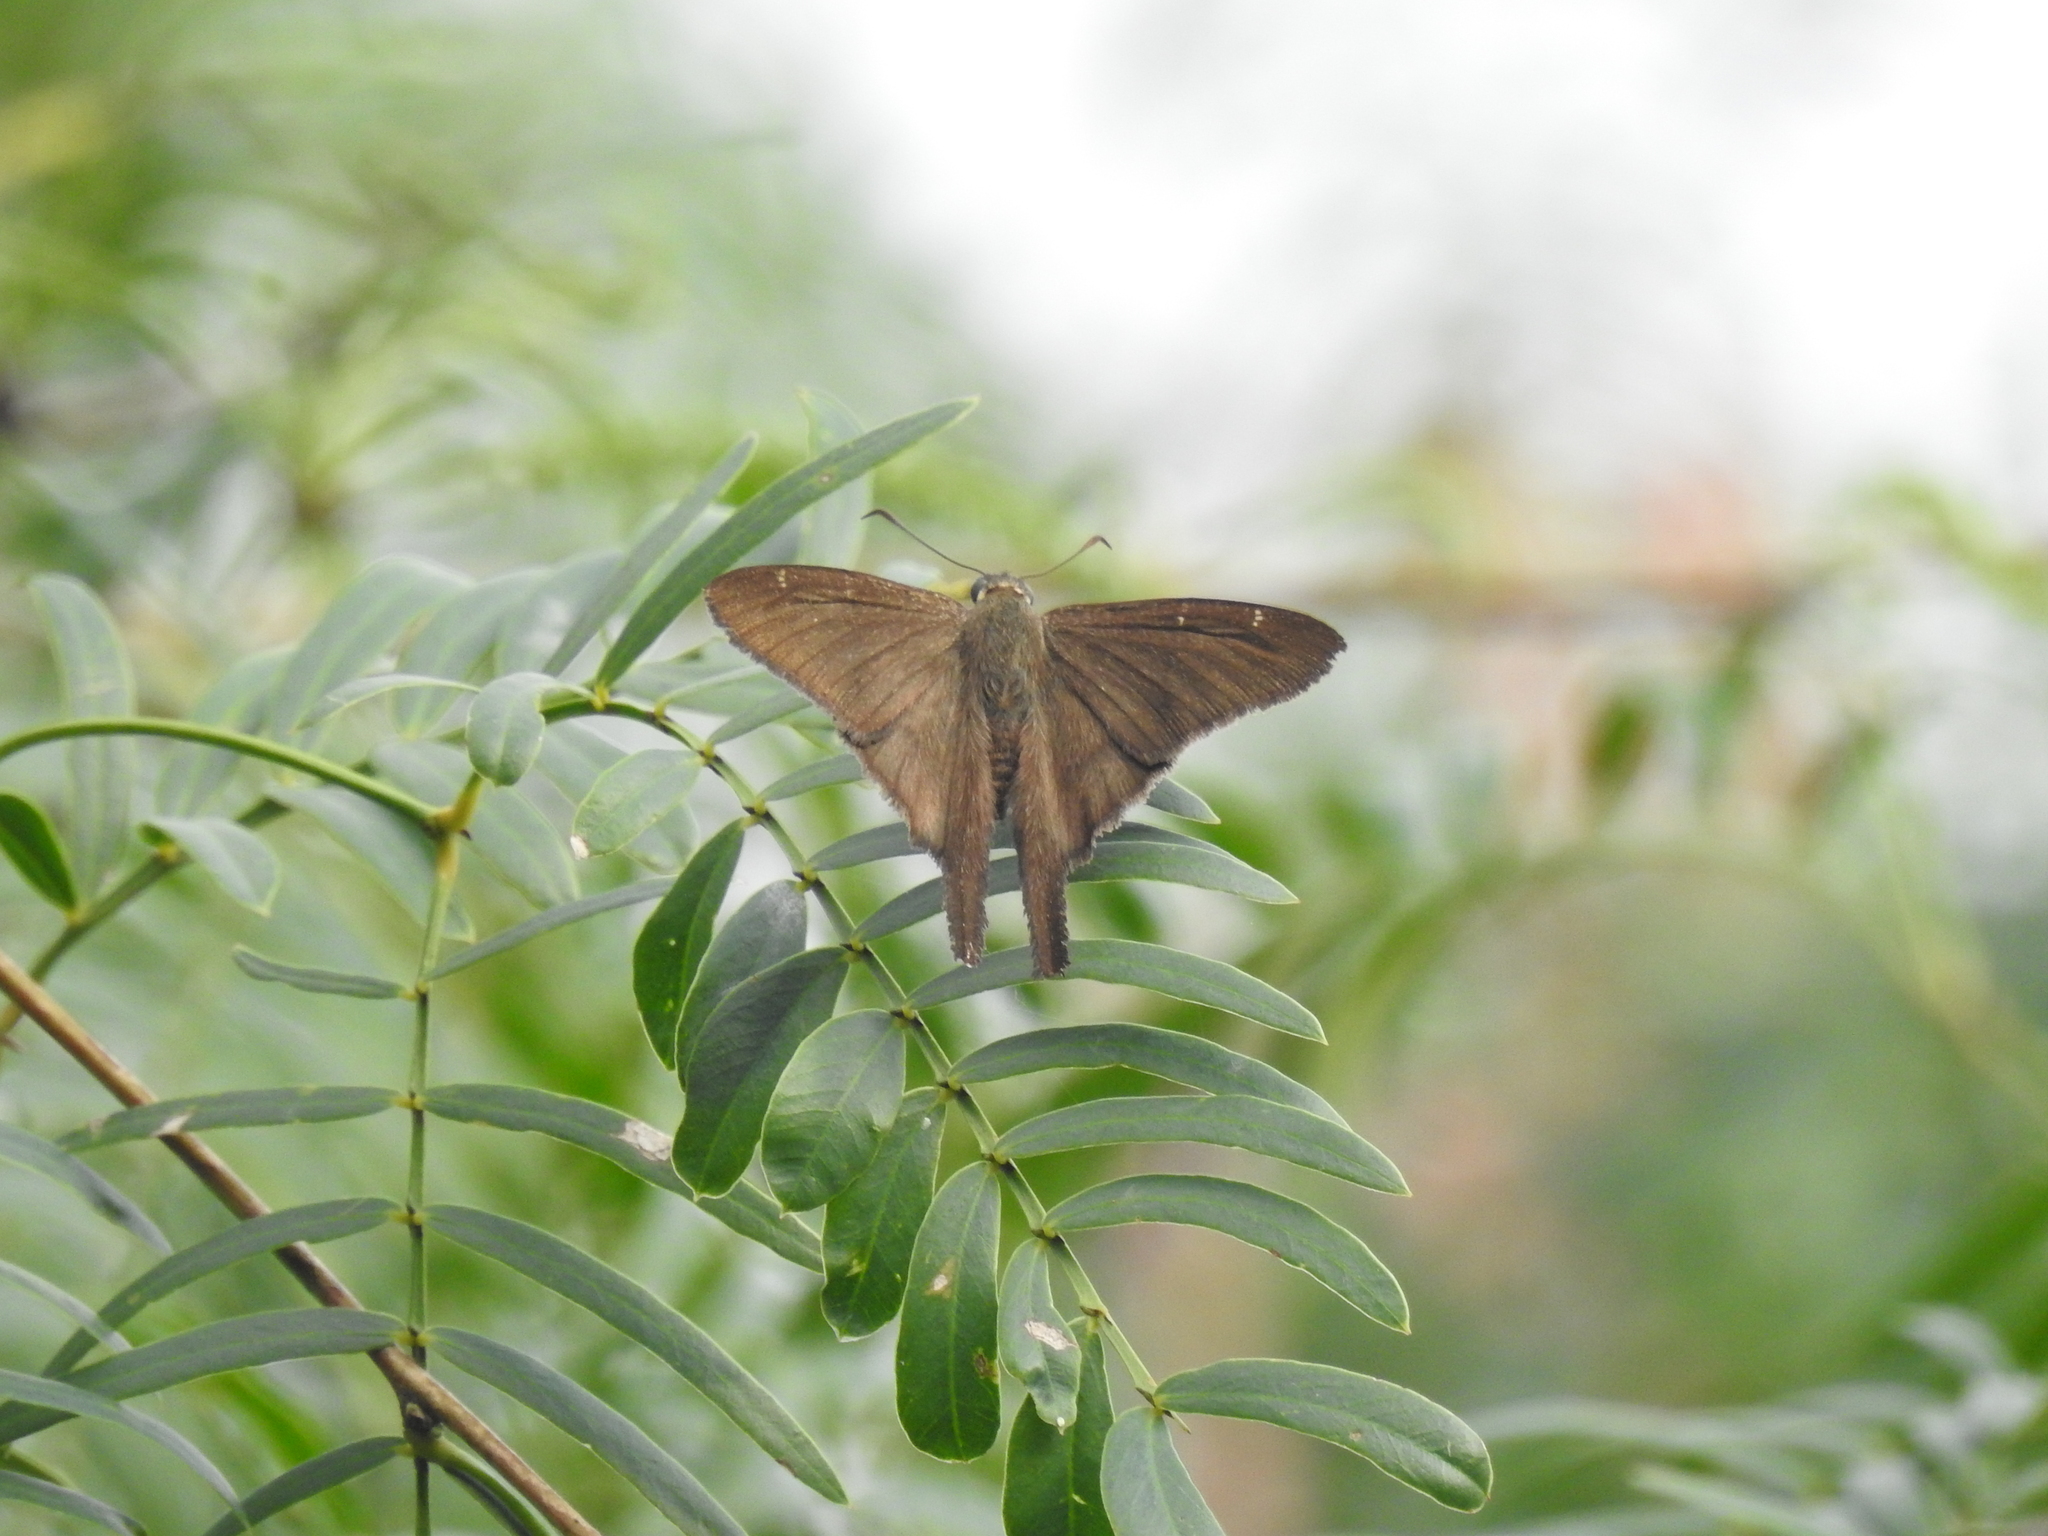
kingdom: Animalia
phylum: Arthropoda
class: Insecta
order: Lepidoptera
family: Hesperiidae
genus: Urbanus
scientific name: Urbanus procne
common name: Brown longtail
